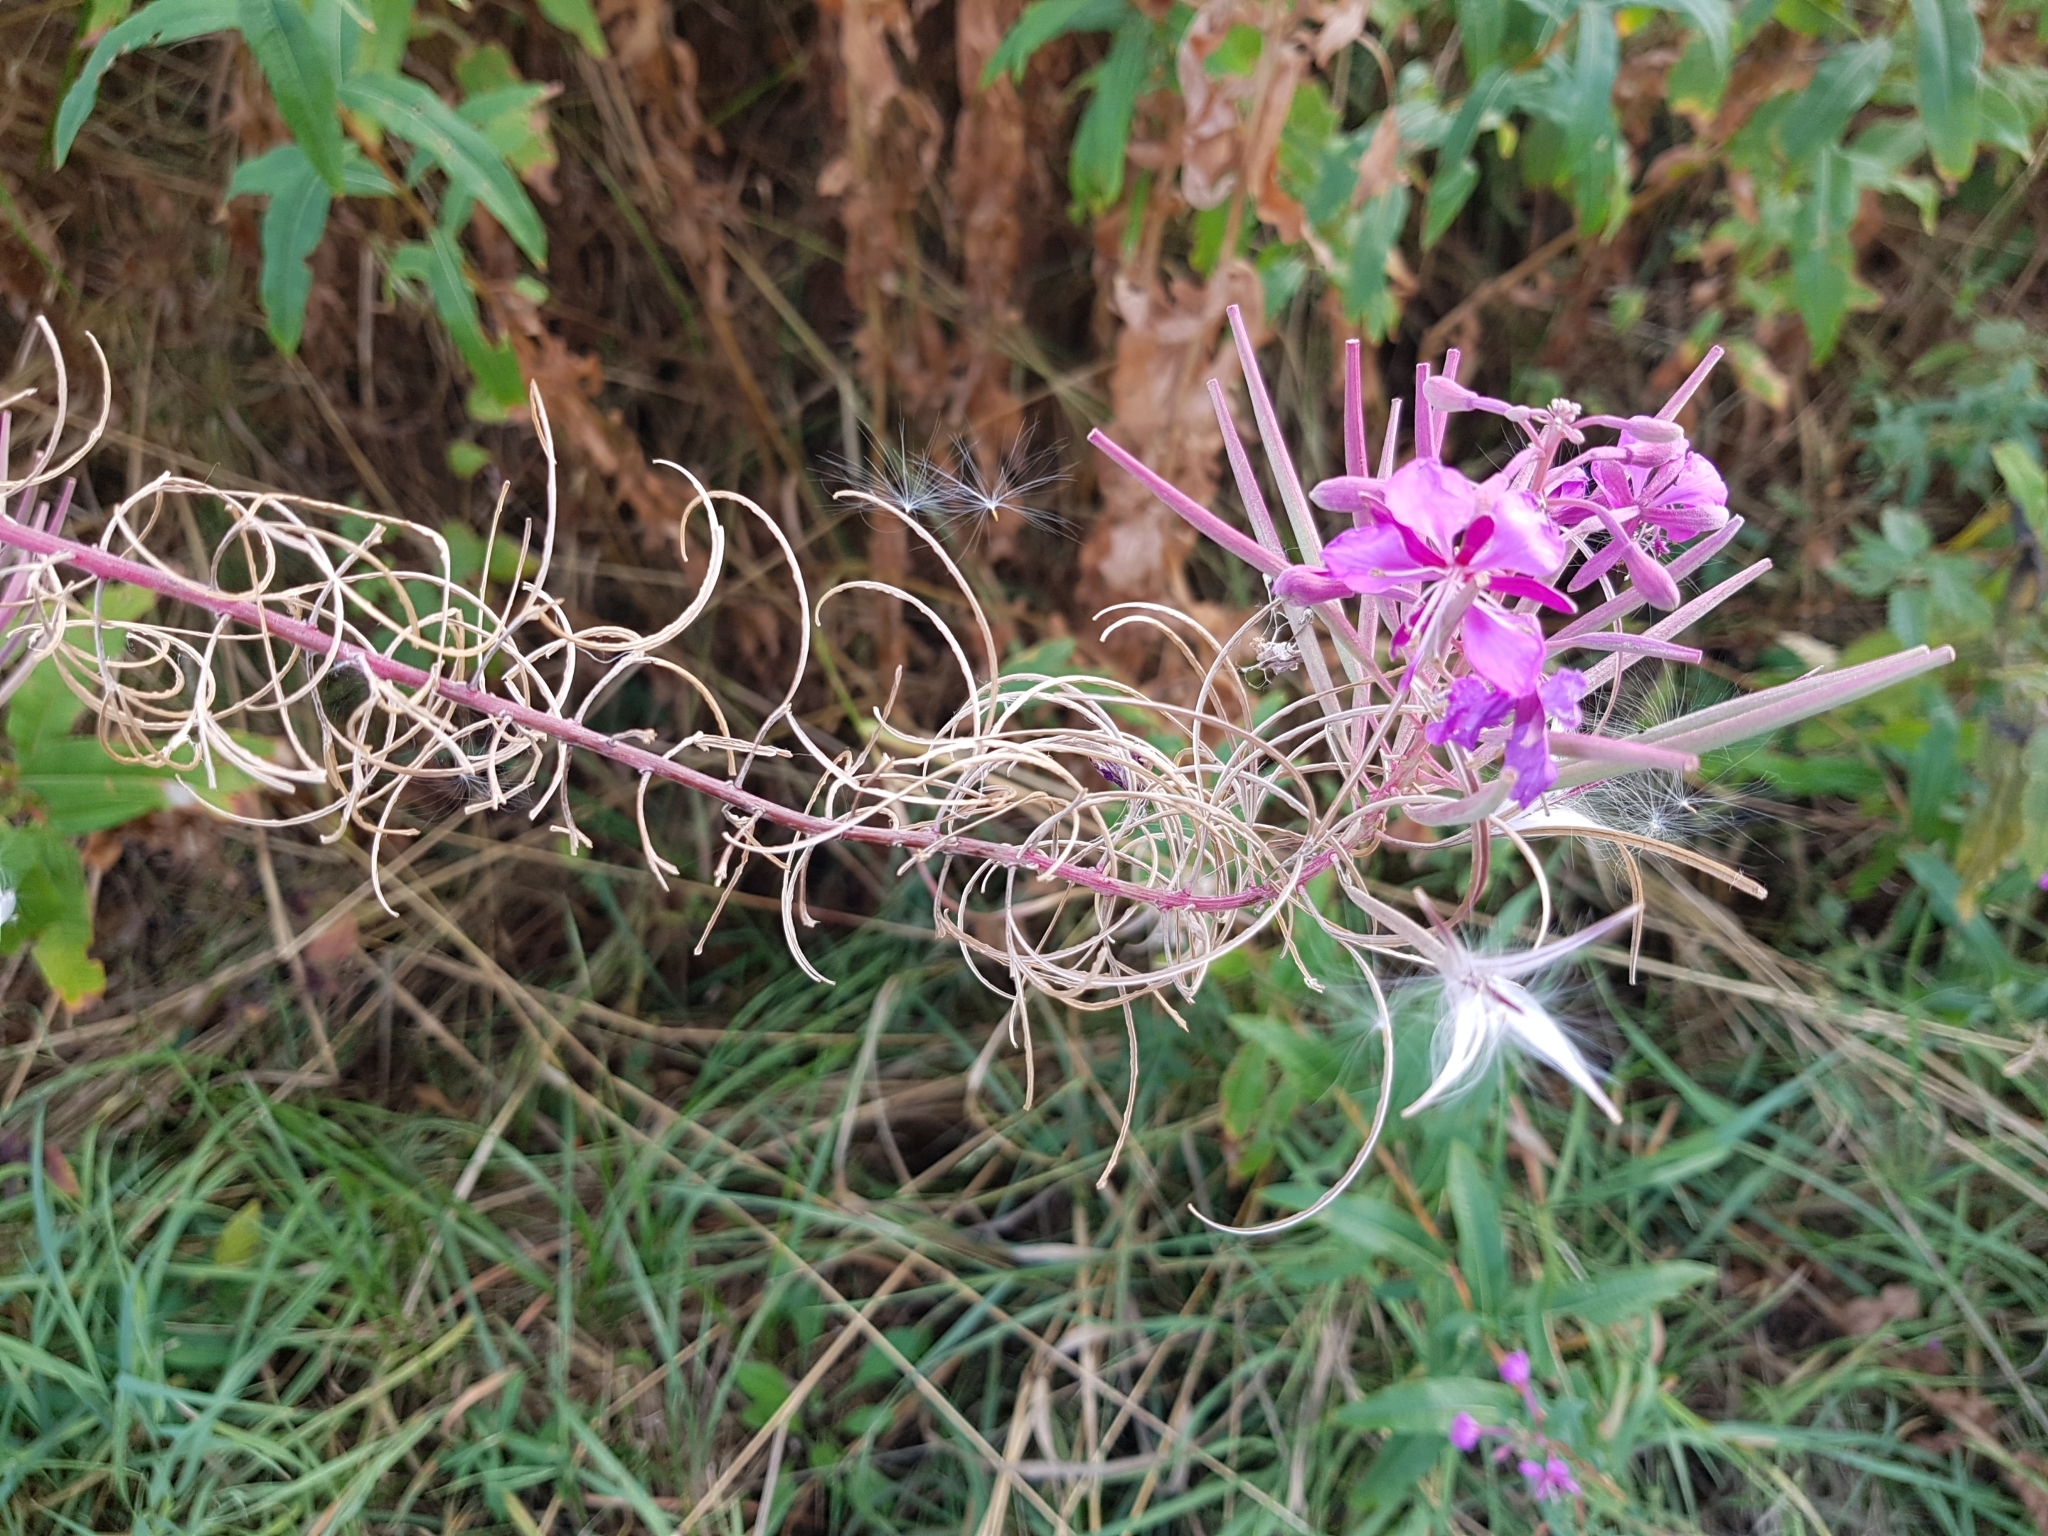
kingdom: Plantae
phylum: Tracheophyta
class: Magnoliopsida
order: Myrtales
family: Onagraceae
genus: Chamaenerion
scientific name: Chamaenerion angustifolium
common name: Fireweed
